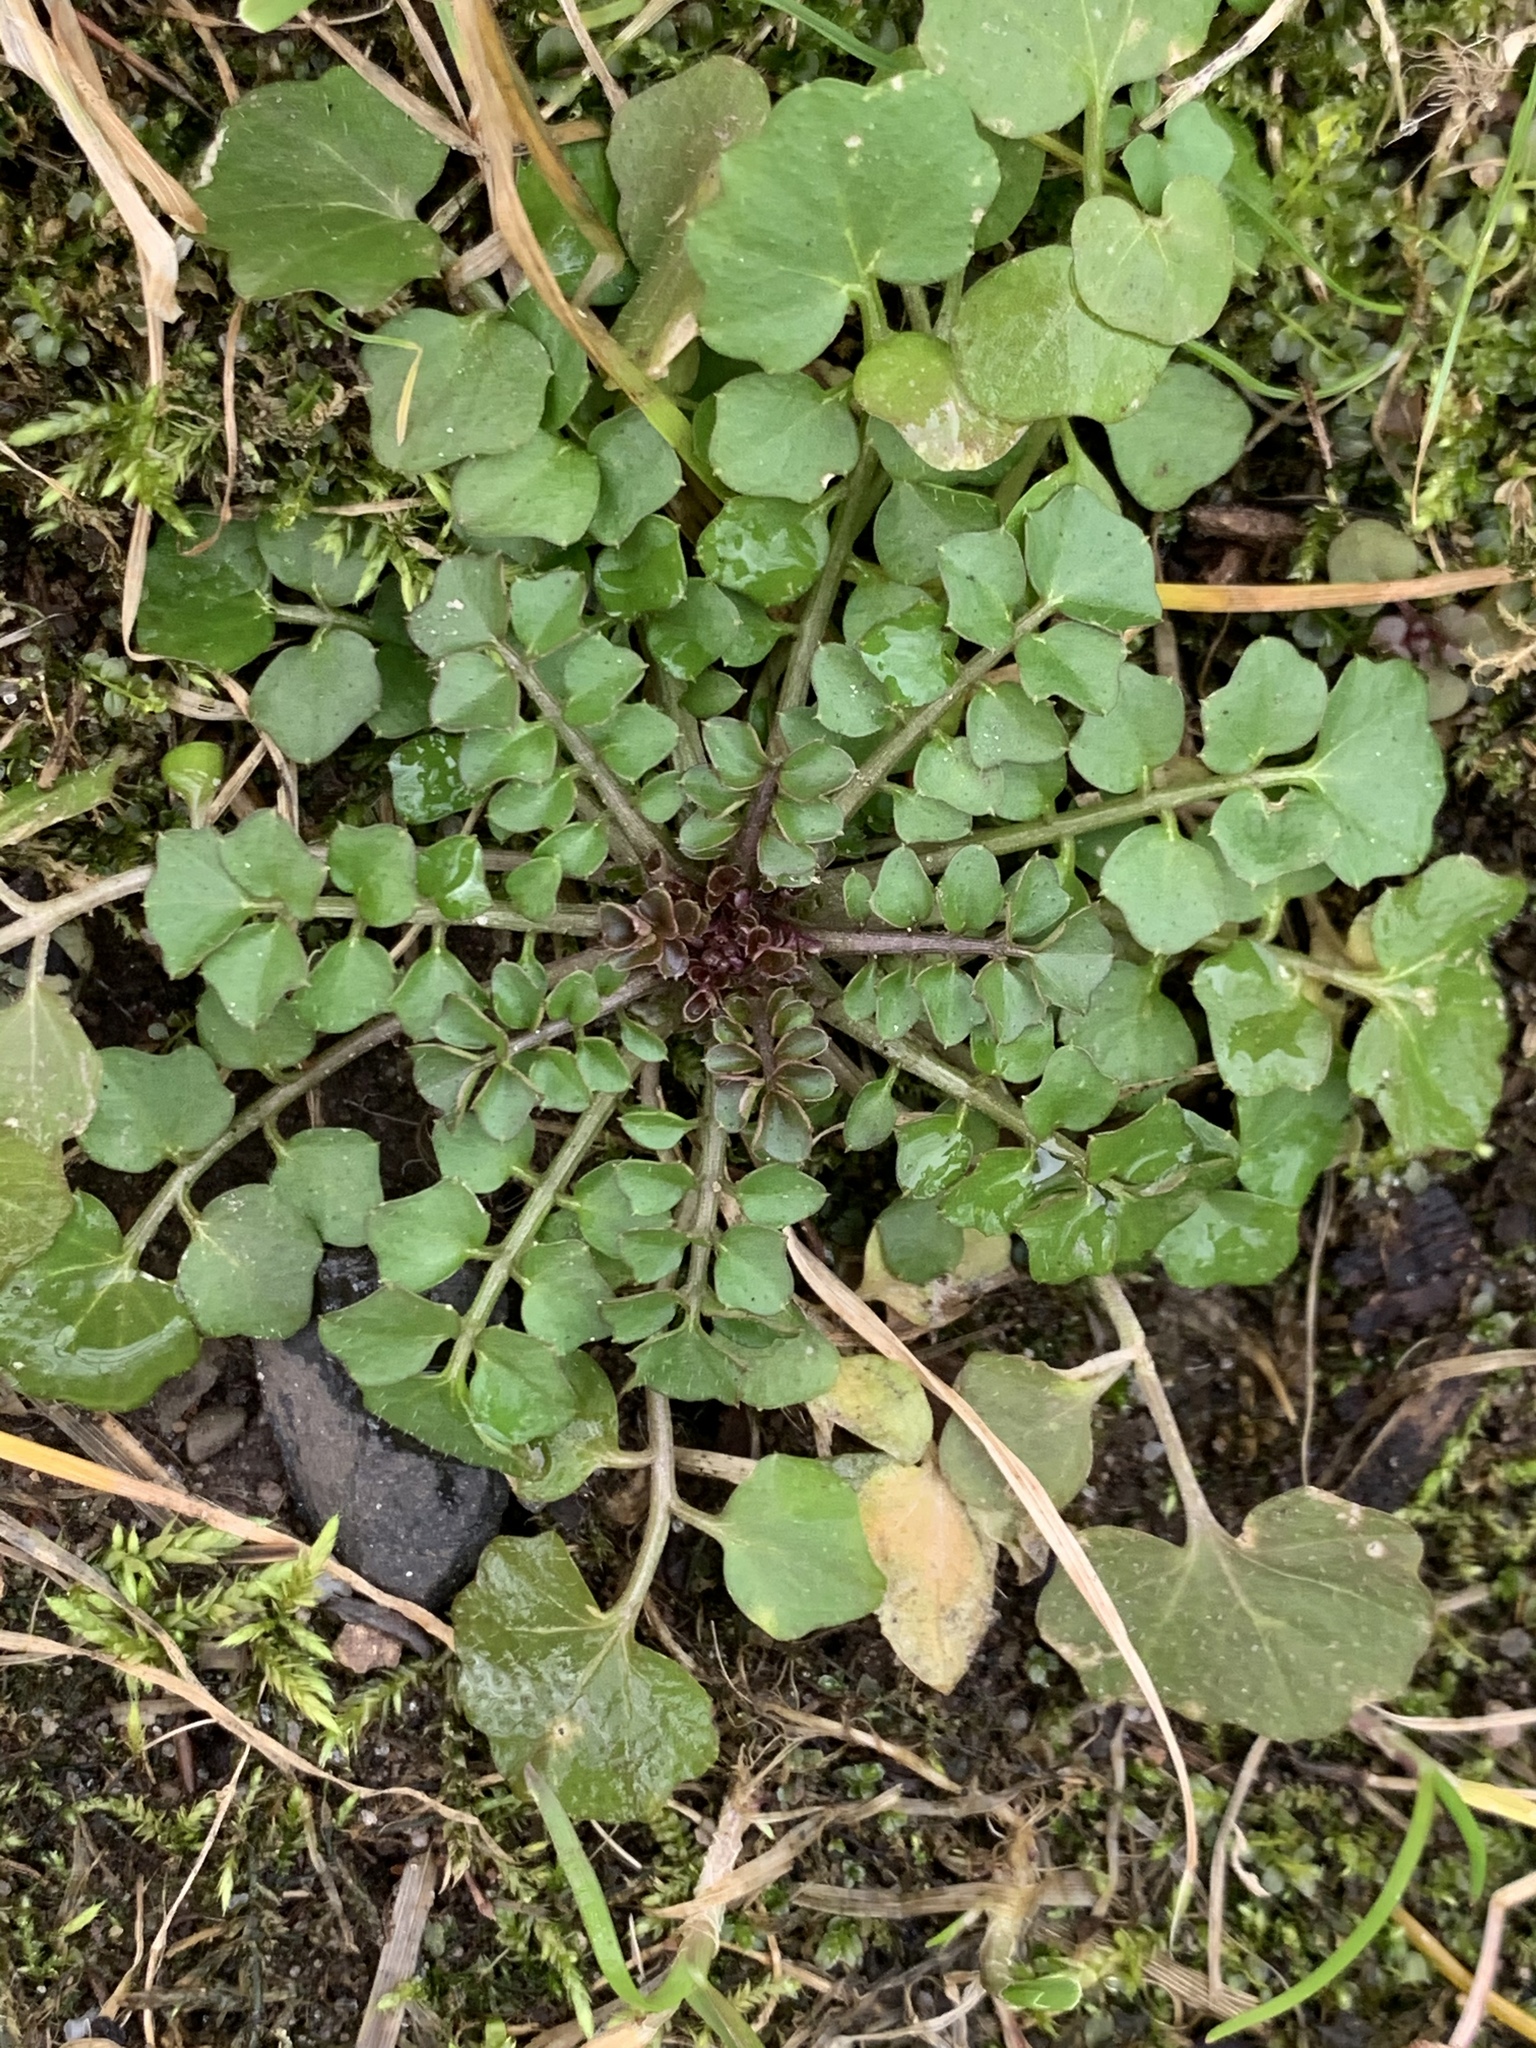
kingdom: Plantae
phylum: Tracheophyta
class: Magnoliopsida
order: Brassicales
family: Brassicaceae
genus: Cardamine
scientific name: Cardamine hirsuta
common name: Hairy bittercress
